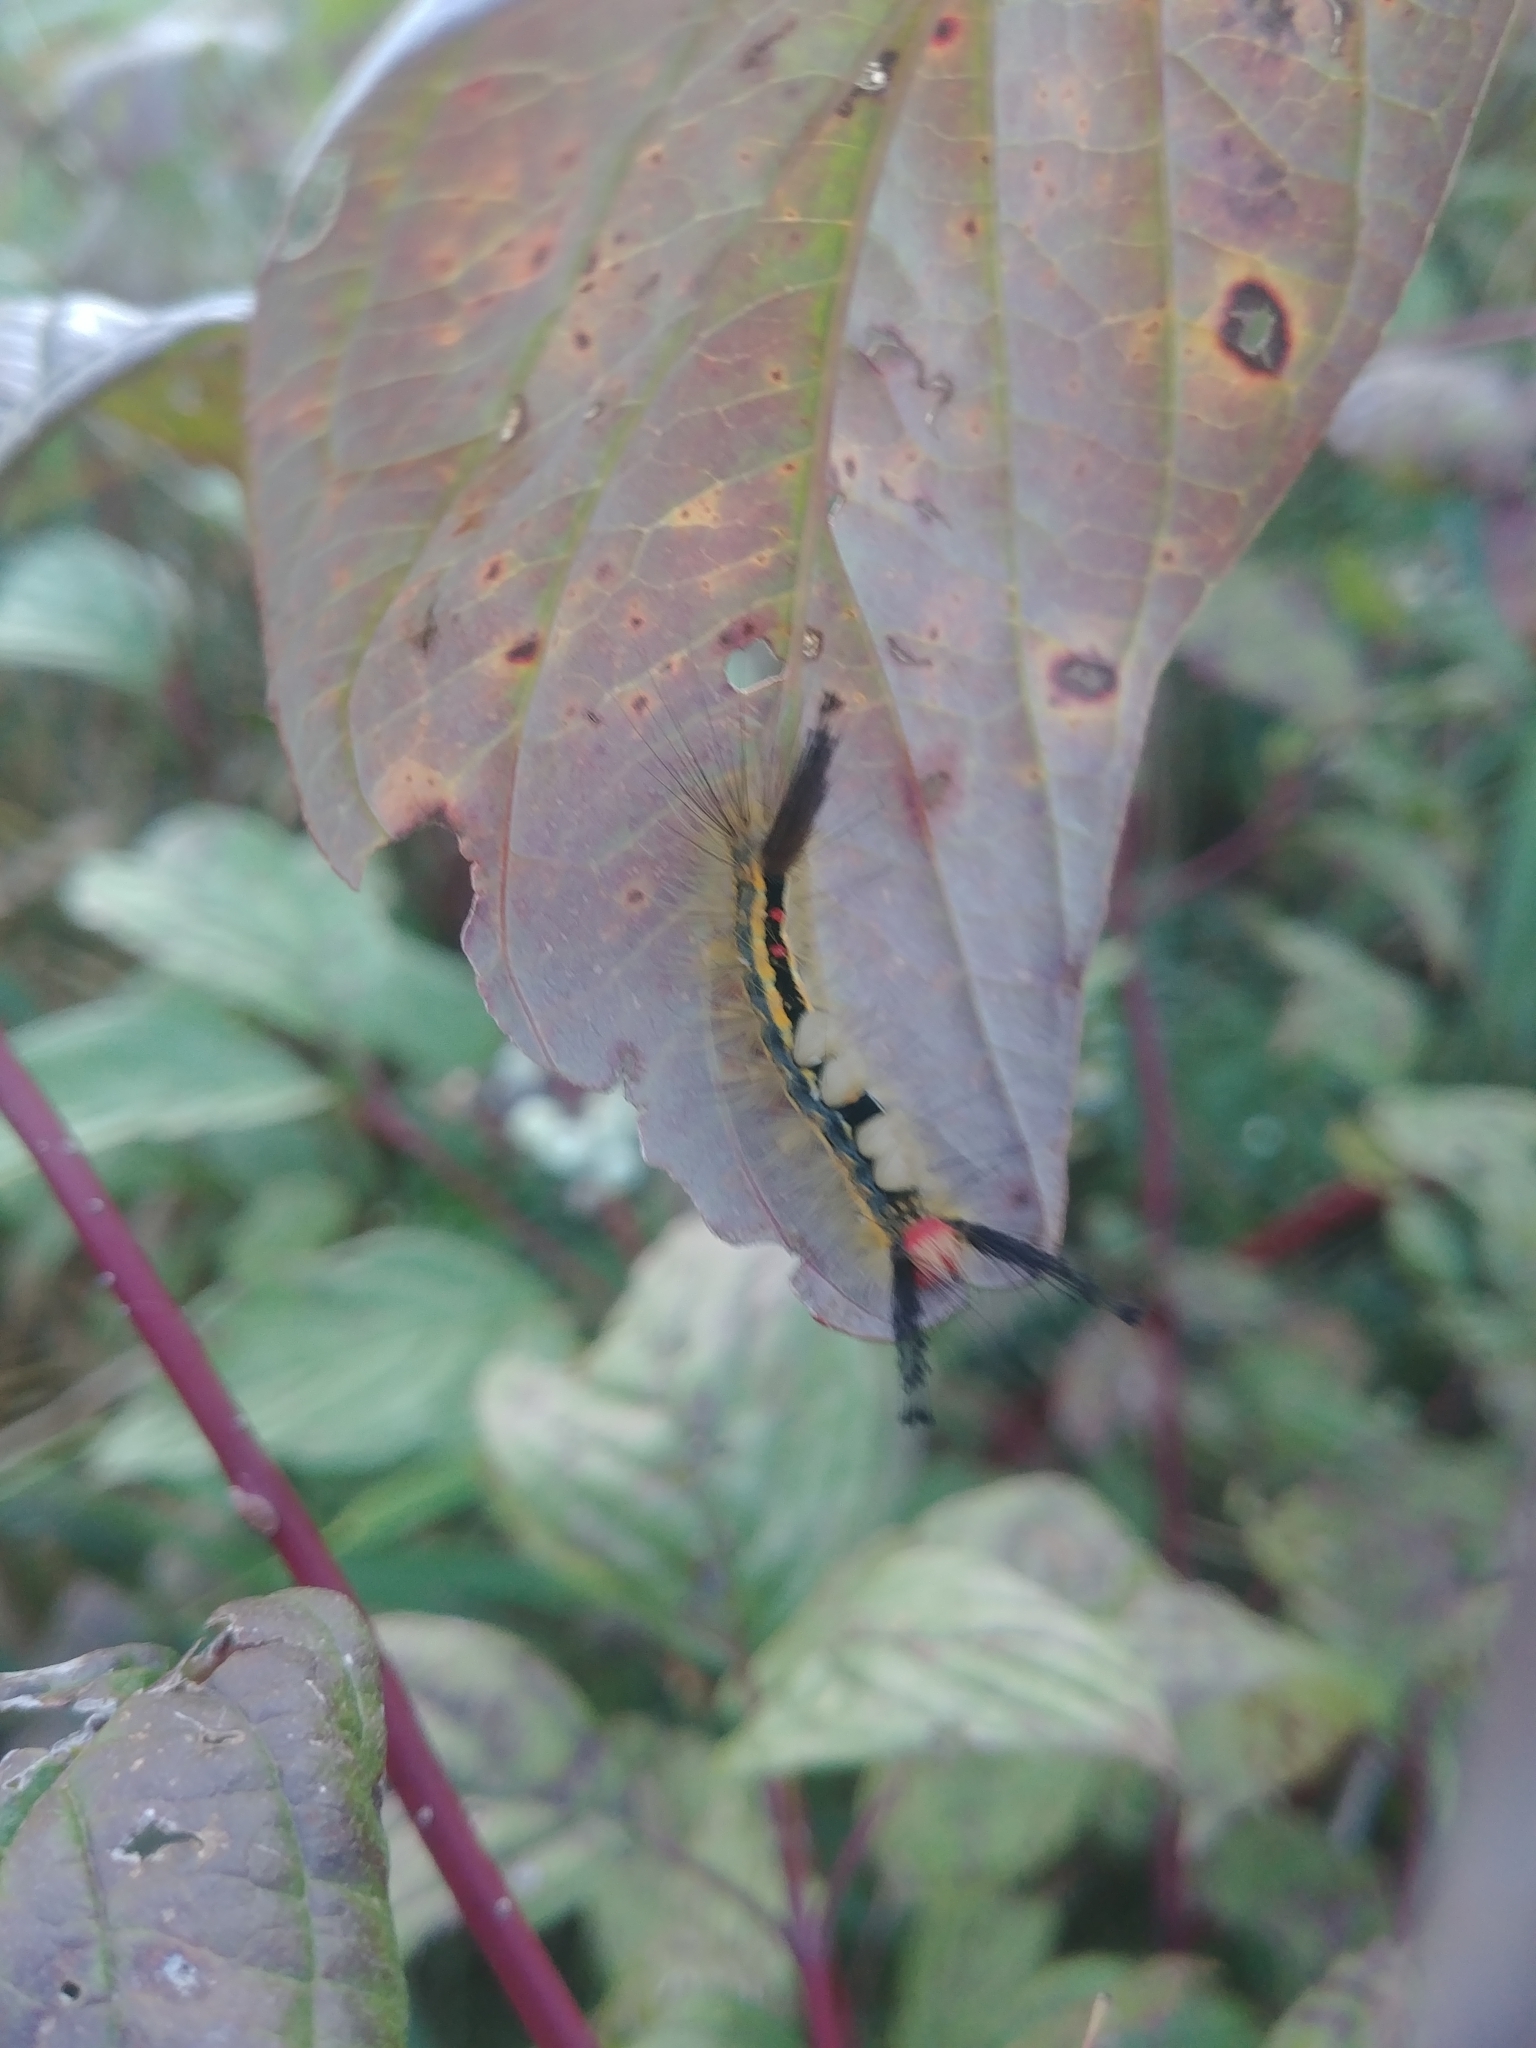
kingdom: Animalia
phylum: Arthropoda
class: Insecta
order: Lepidoptera
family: Erebidae
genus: Orgyia
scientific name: Orgyia leucostigma
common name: White-marked tussock moth
